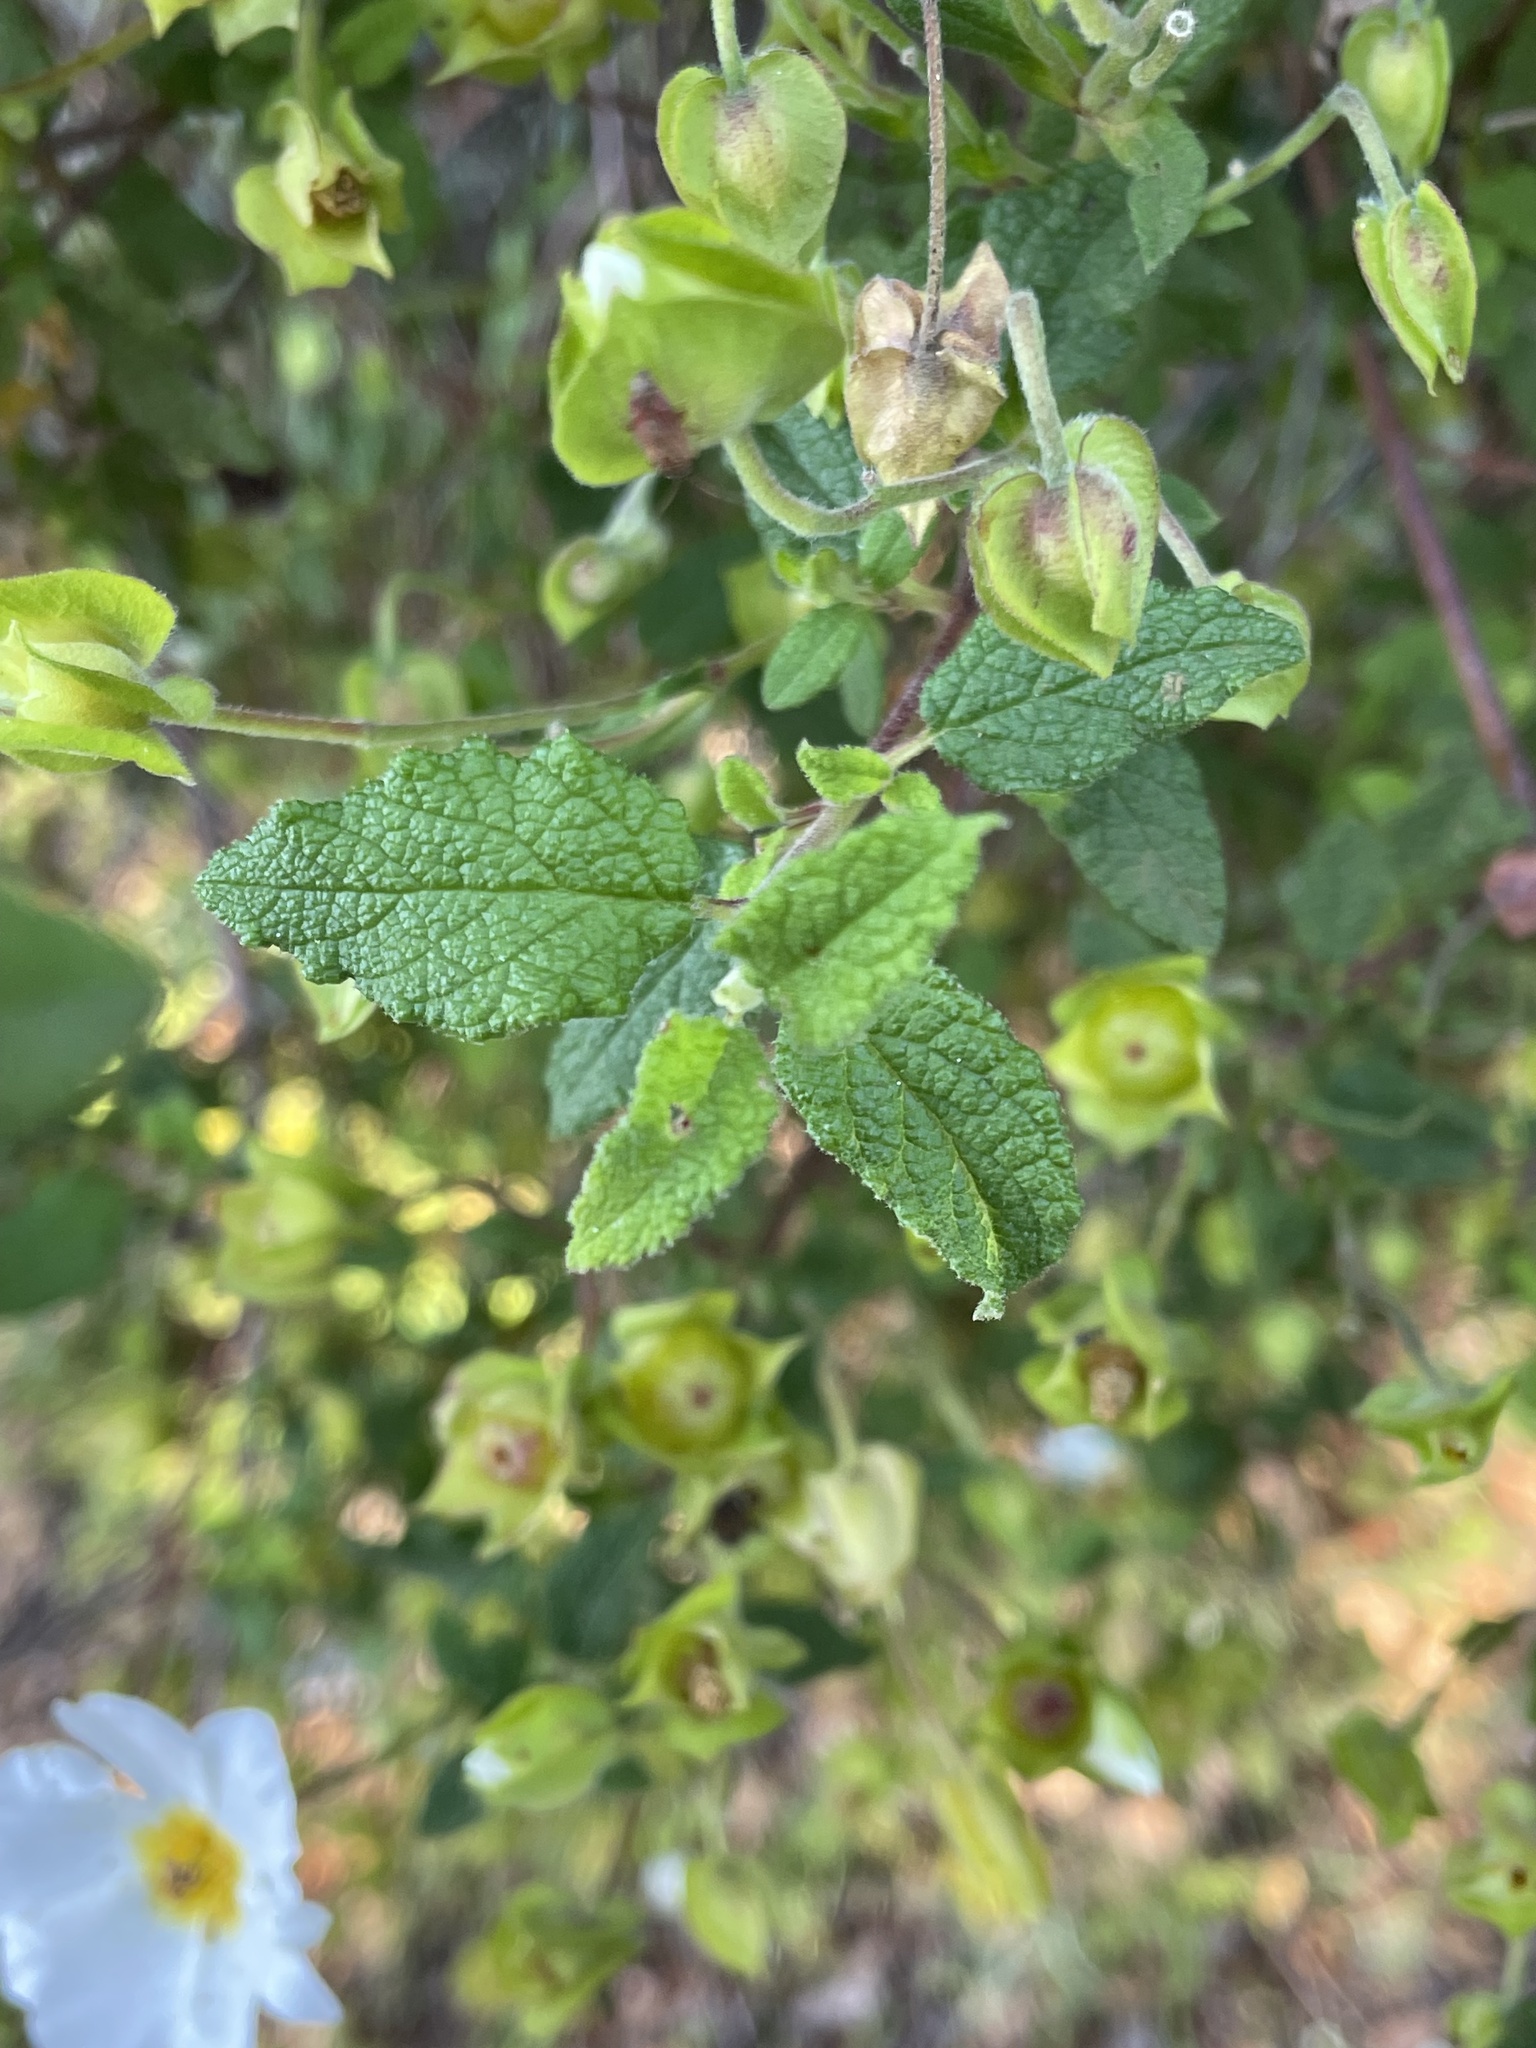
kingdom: Plantae
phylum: Tracheophyta
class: Magnoliopsida
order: Malvales
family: Cistaceae
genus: Cistus
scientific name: Cistus salviifolius
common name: Salvia cistus
